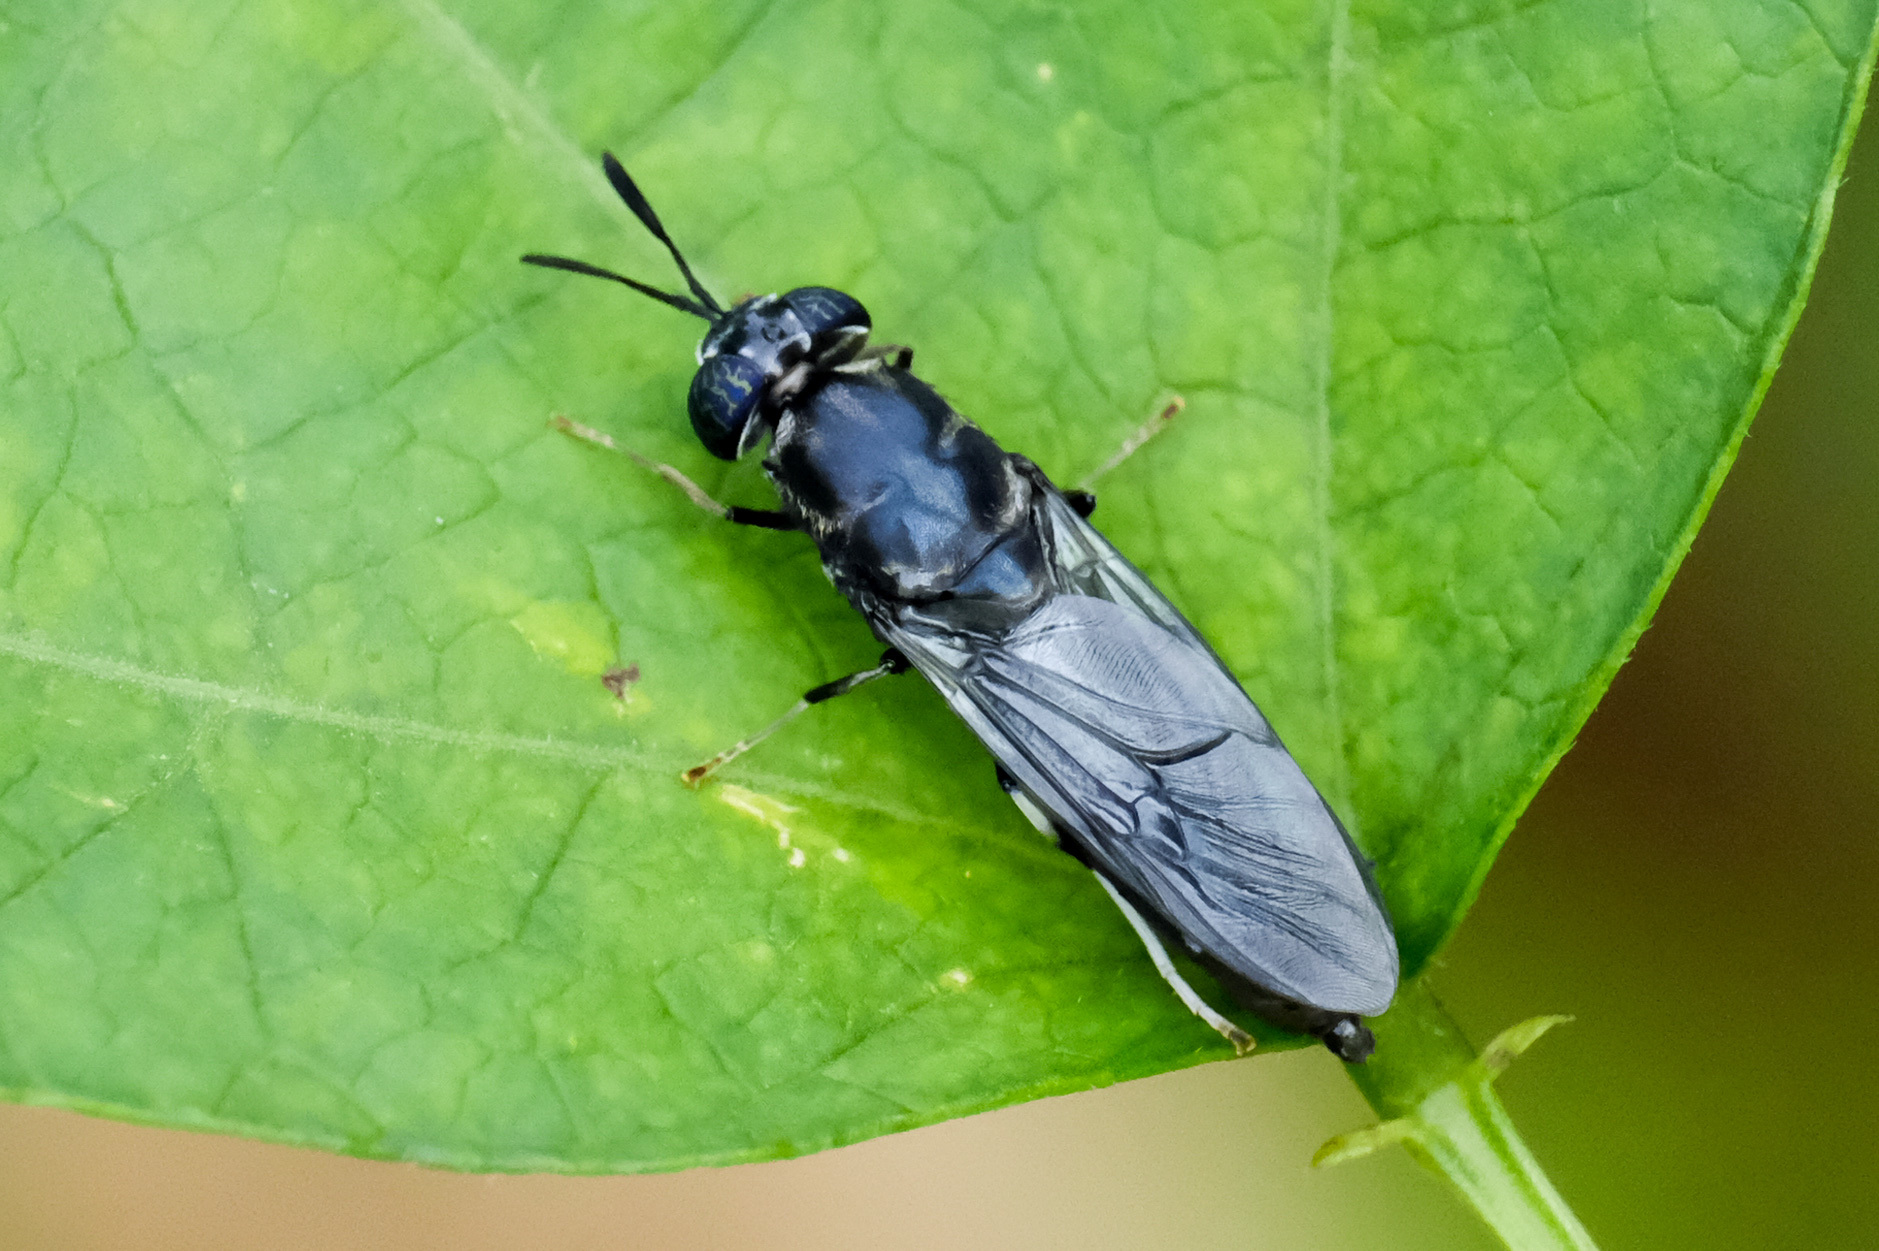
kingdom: Animalia
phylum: Arthropoda
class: Insecta
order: Diptera
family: Stratiomyidae
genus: Hermetia
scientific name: Hermetia illucens
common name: Black soldier fly
